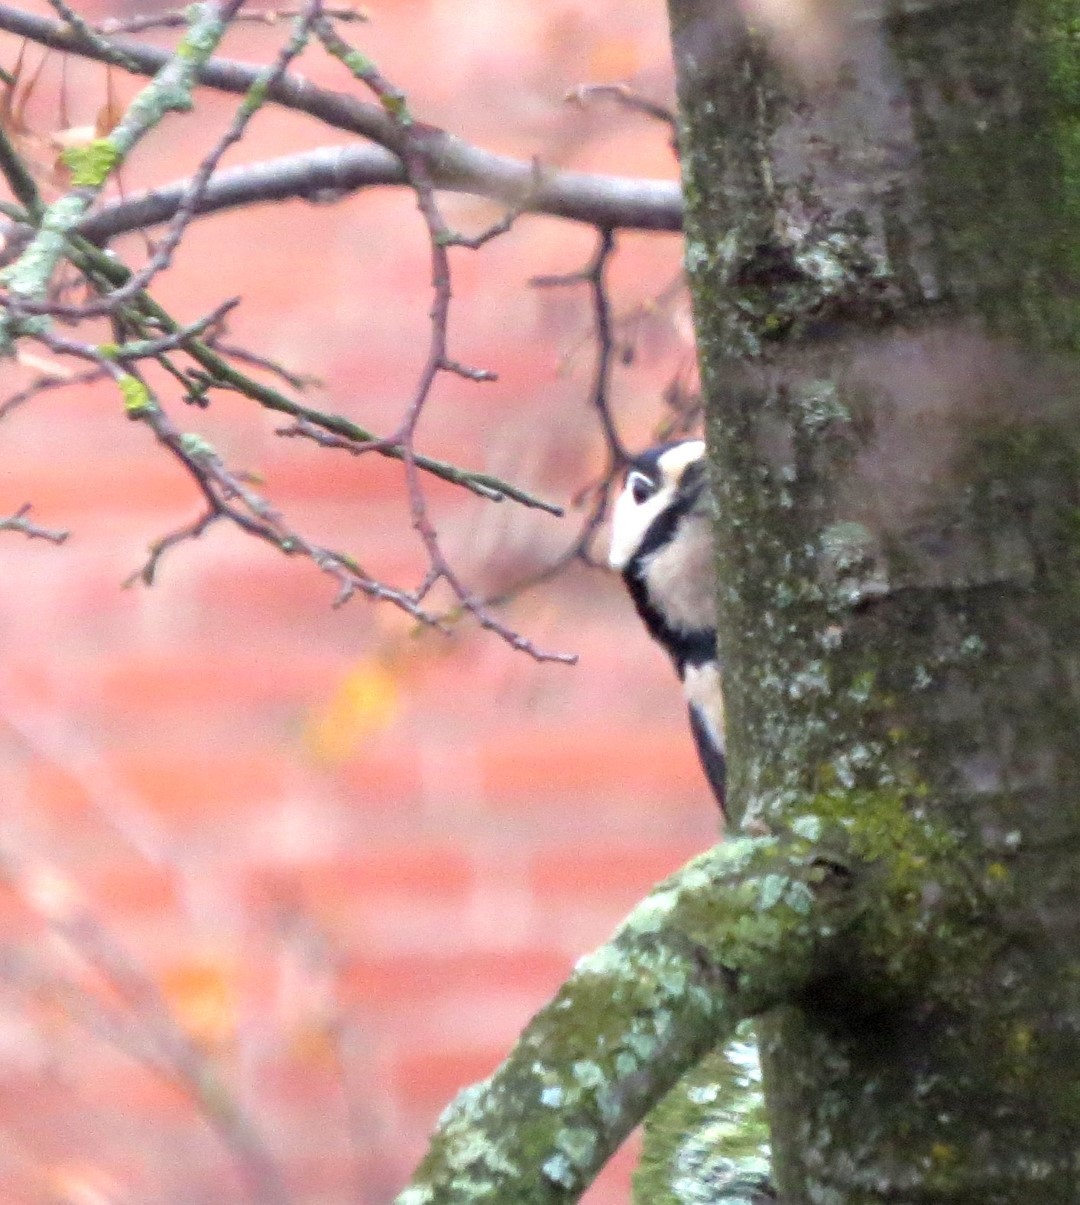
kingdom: Animalia
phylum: Chordata
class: Aves
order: Piciformes
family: Picidae
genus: Dendrocopos
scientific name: Dendrocopos major
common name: Great spotted woodpecker
